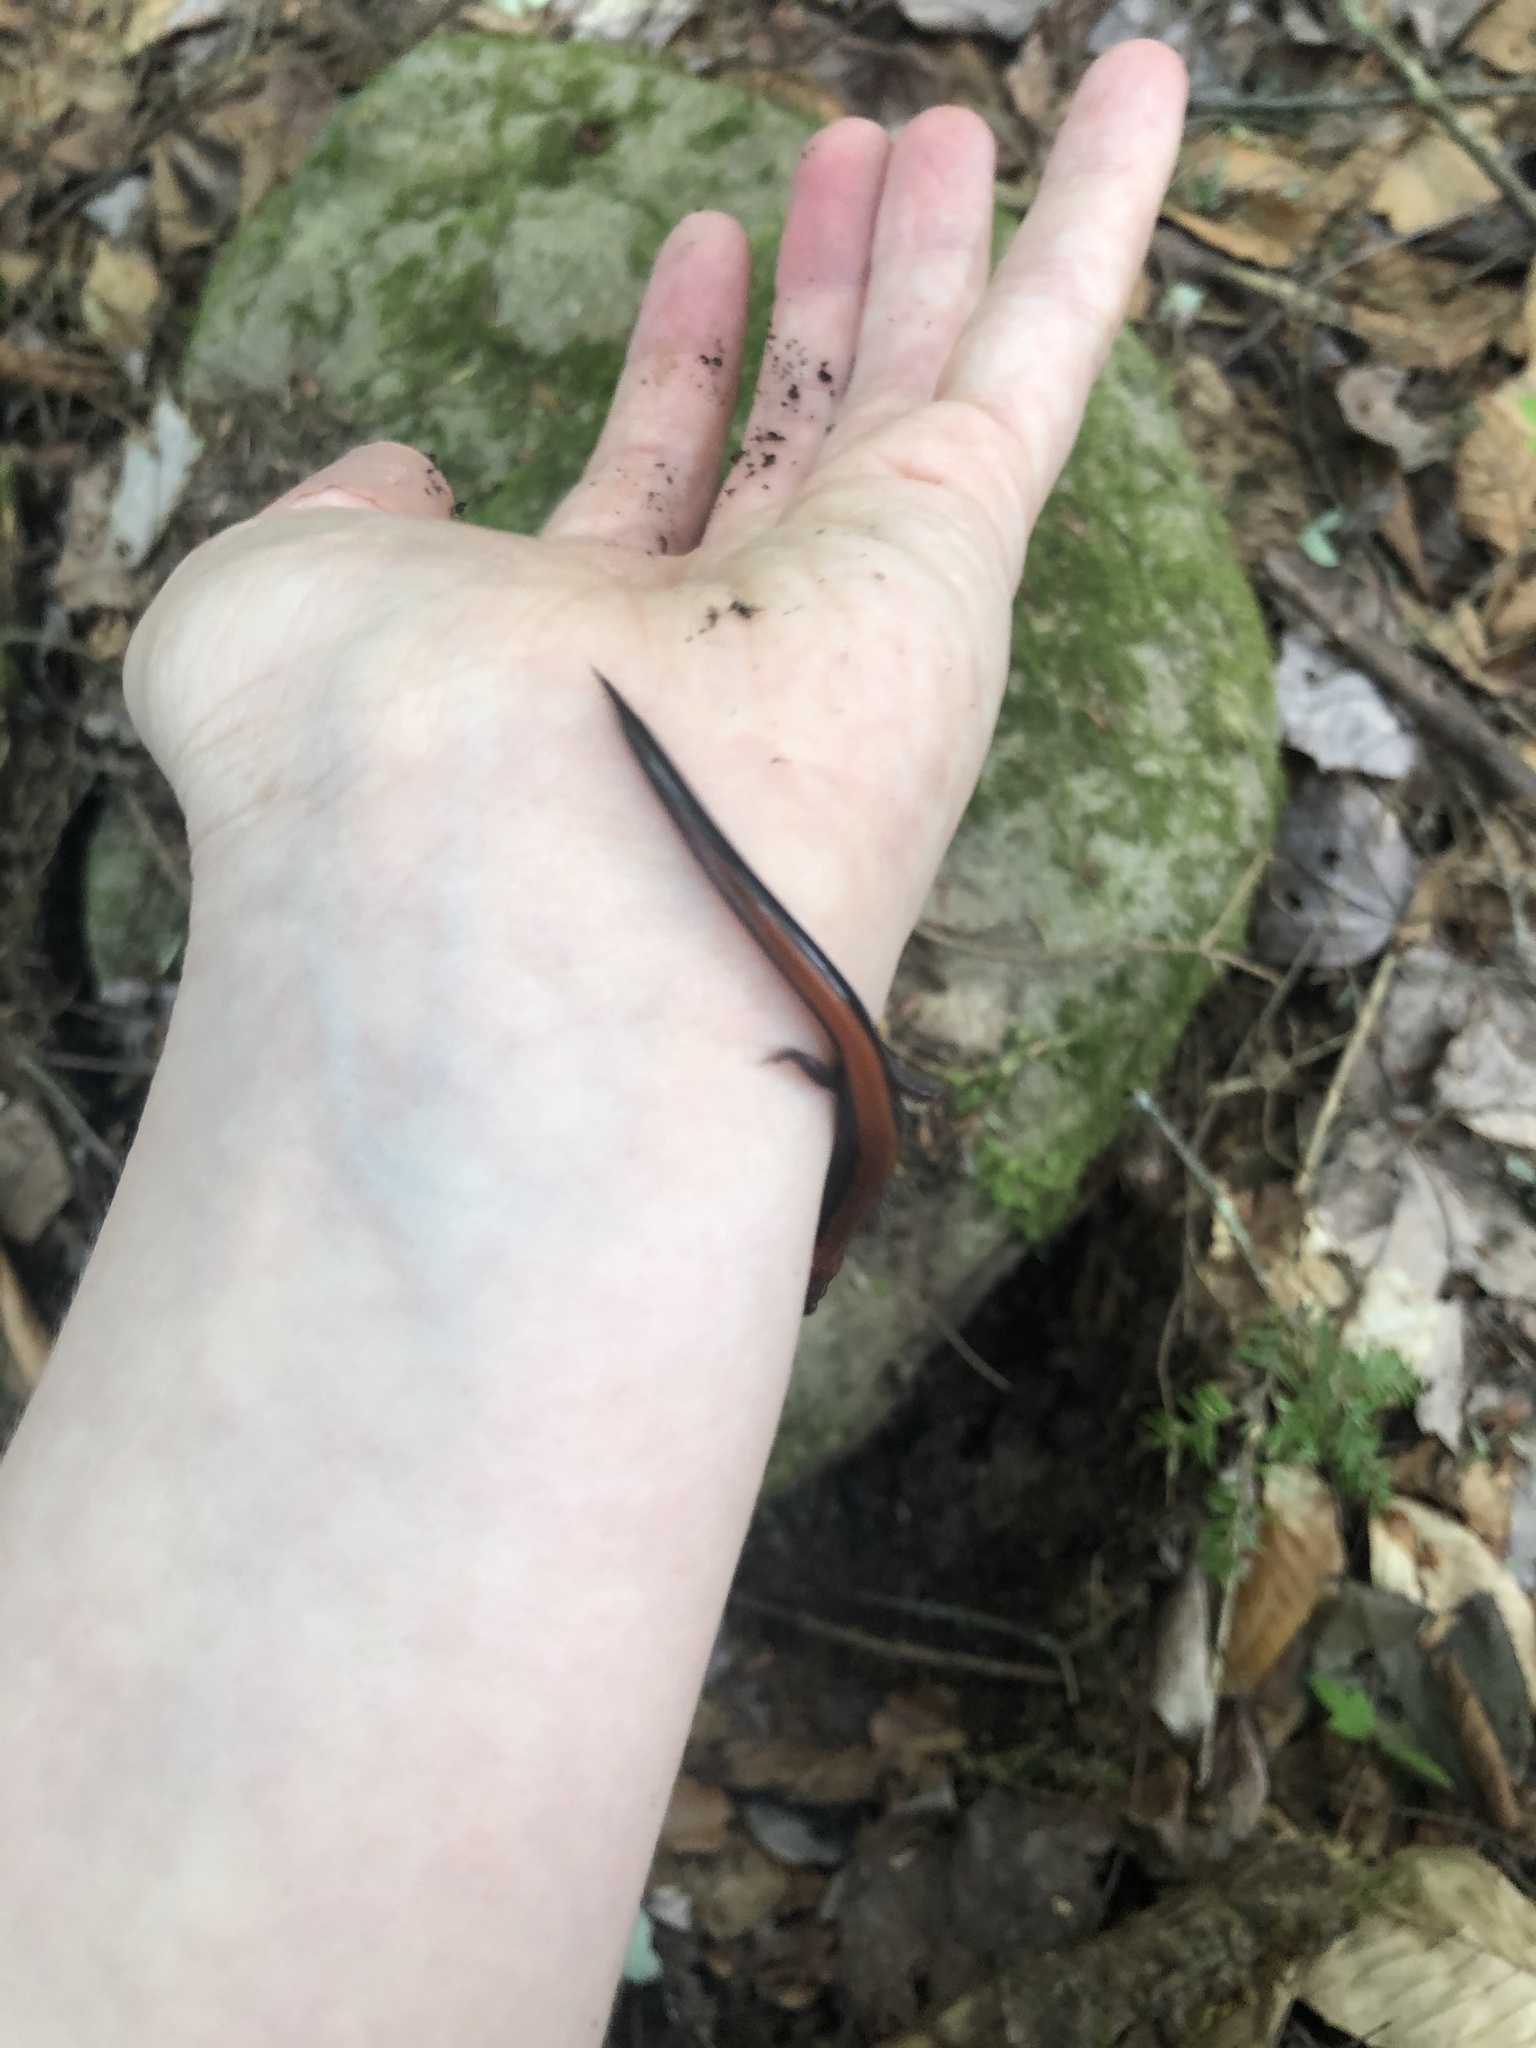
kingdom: Animalia
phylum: Chordata
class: Amphibia
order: Caudata
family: Plethodontidae
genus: Plethodon
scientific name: Plethodon cinereus
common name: Redback salamander
